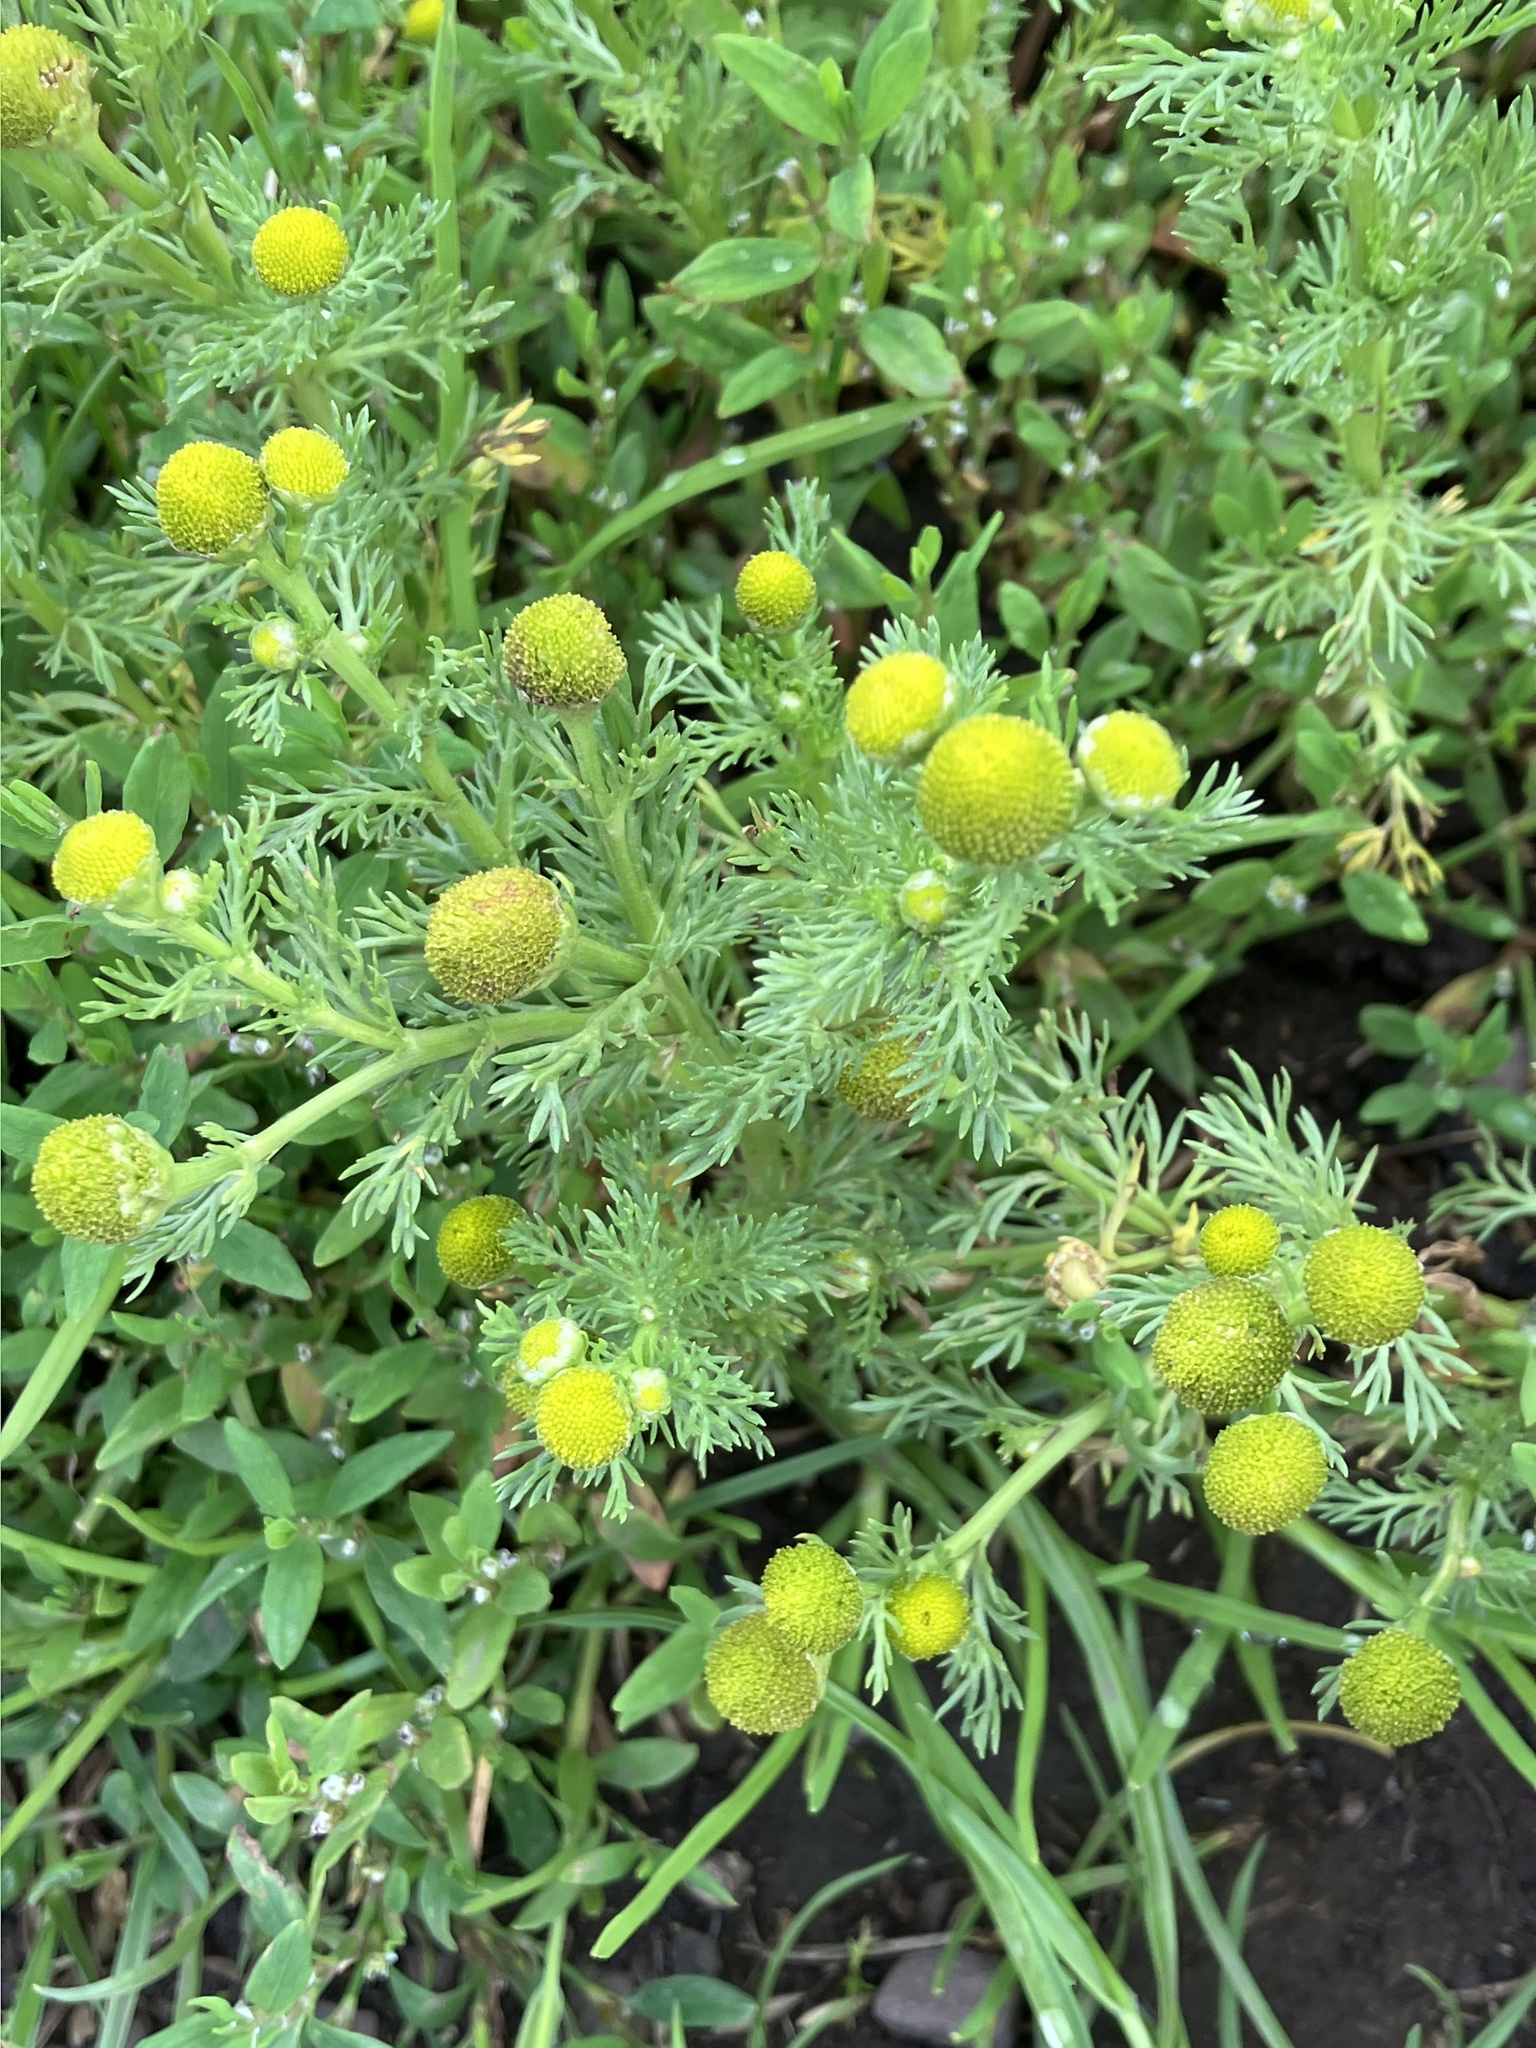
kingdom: Plantae
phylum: Tracheophyta
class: Magnoliopsida
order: Asterales
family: Asteraceae
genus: Matricaria
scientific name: Matricaria discoidea
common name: Disc mayweed
